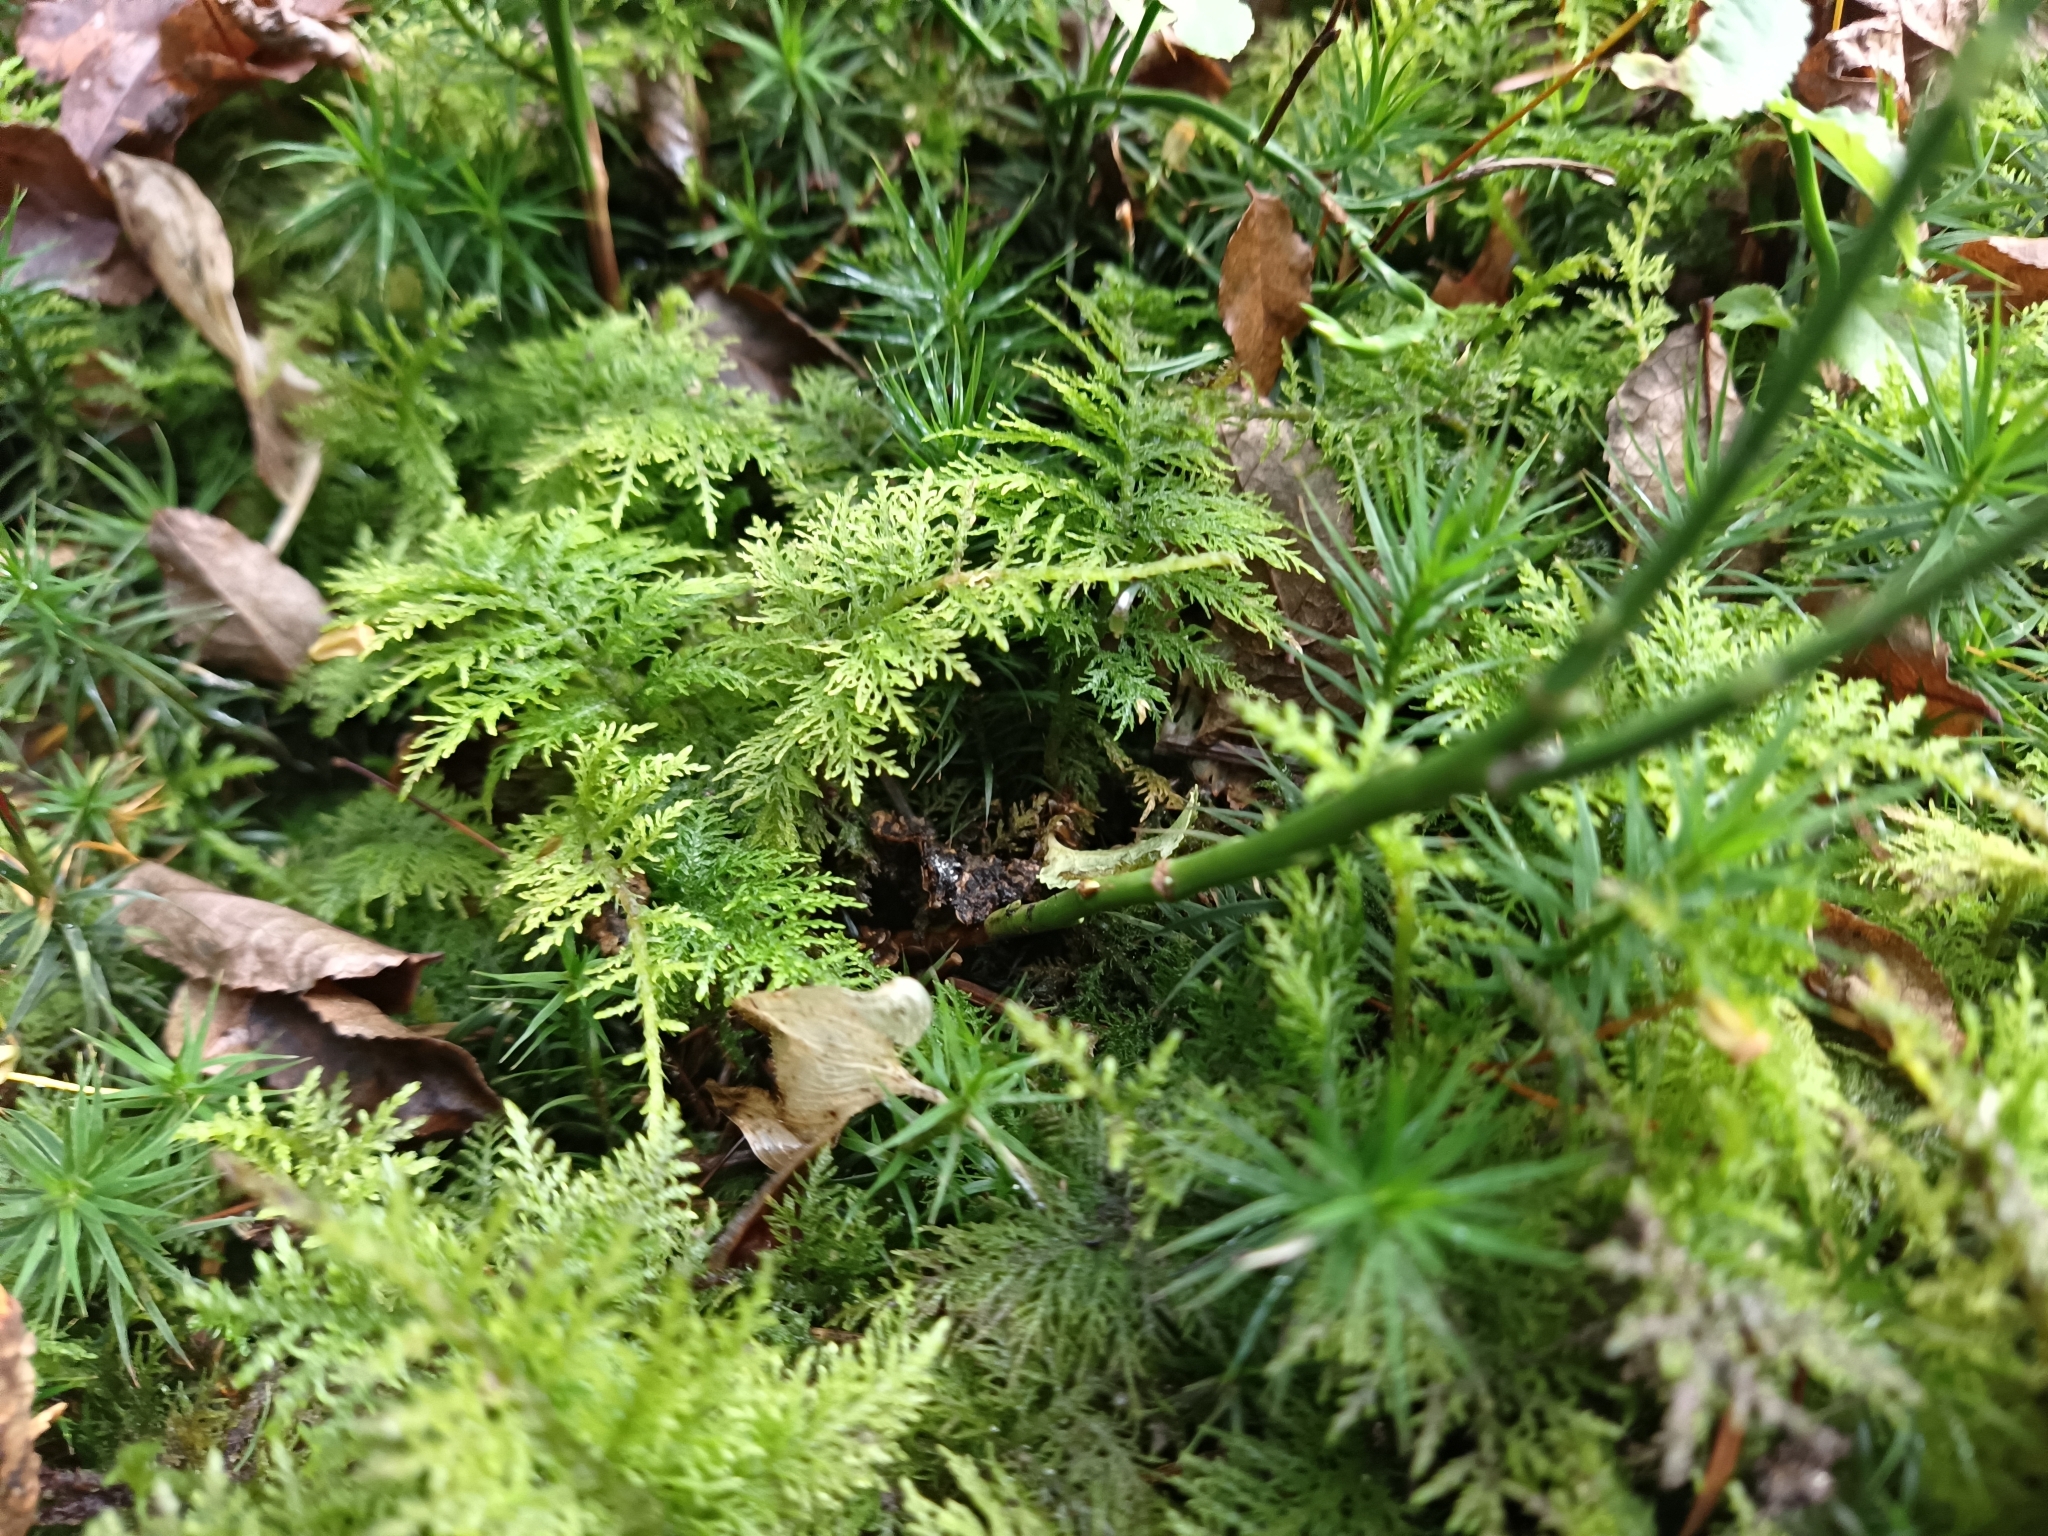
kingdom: Plantae
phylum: Bryophyta
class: Bryopsida
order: Hypnales
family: Thuidiaceae
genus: Thuidium
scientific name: Thuidium tamariscinum
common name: Common tamarisk-moss
